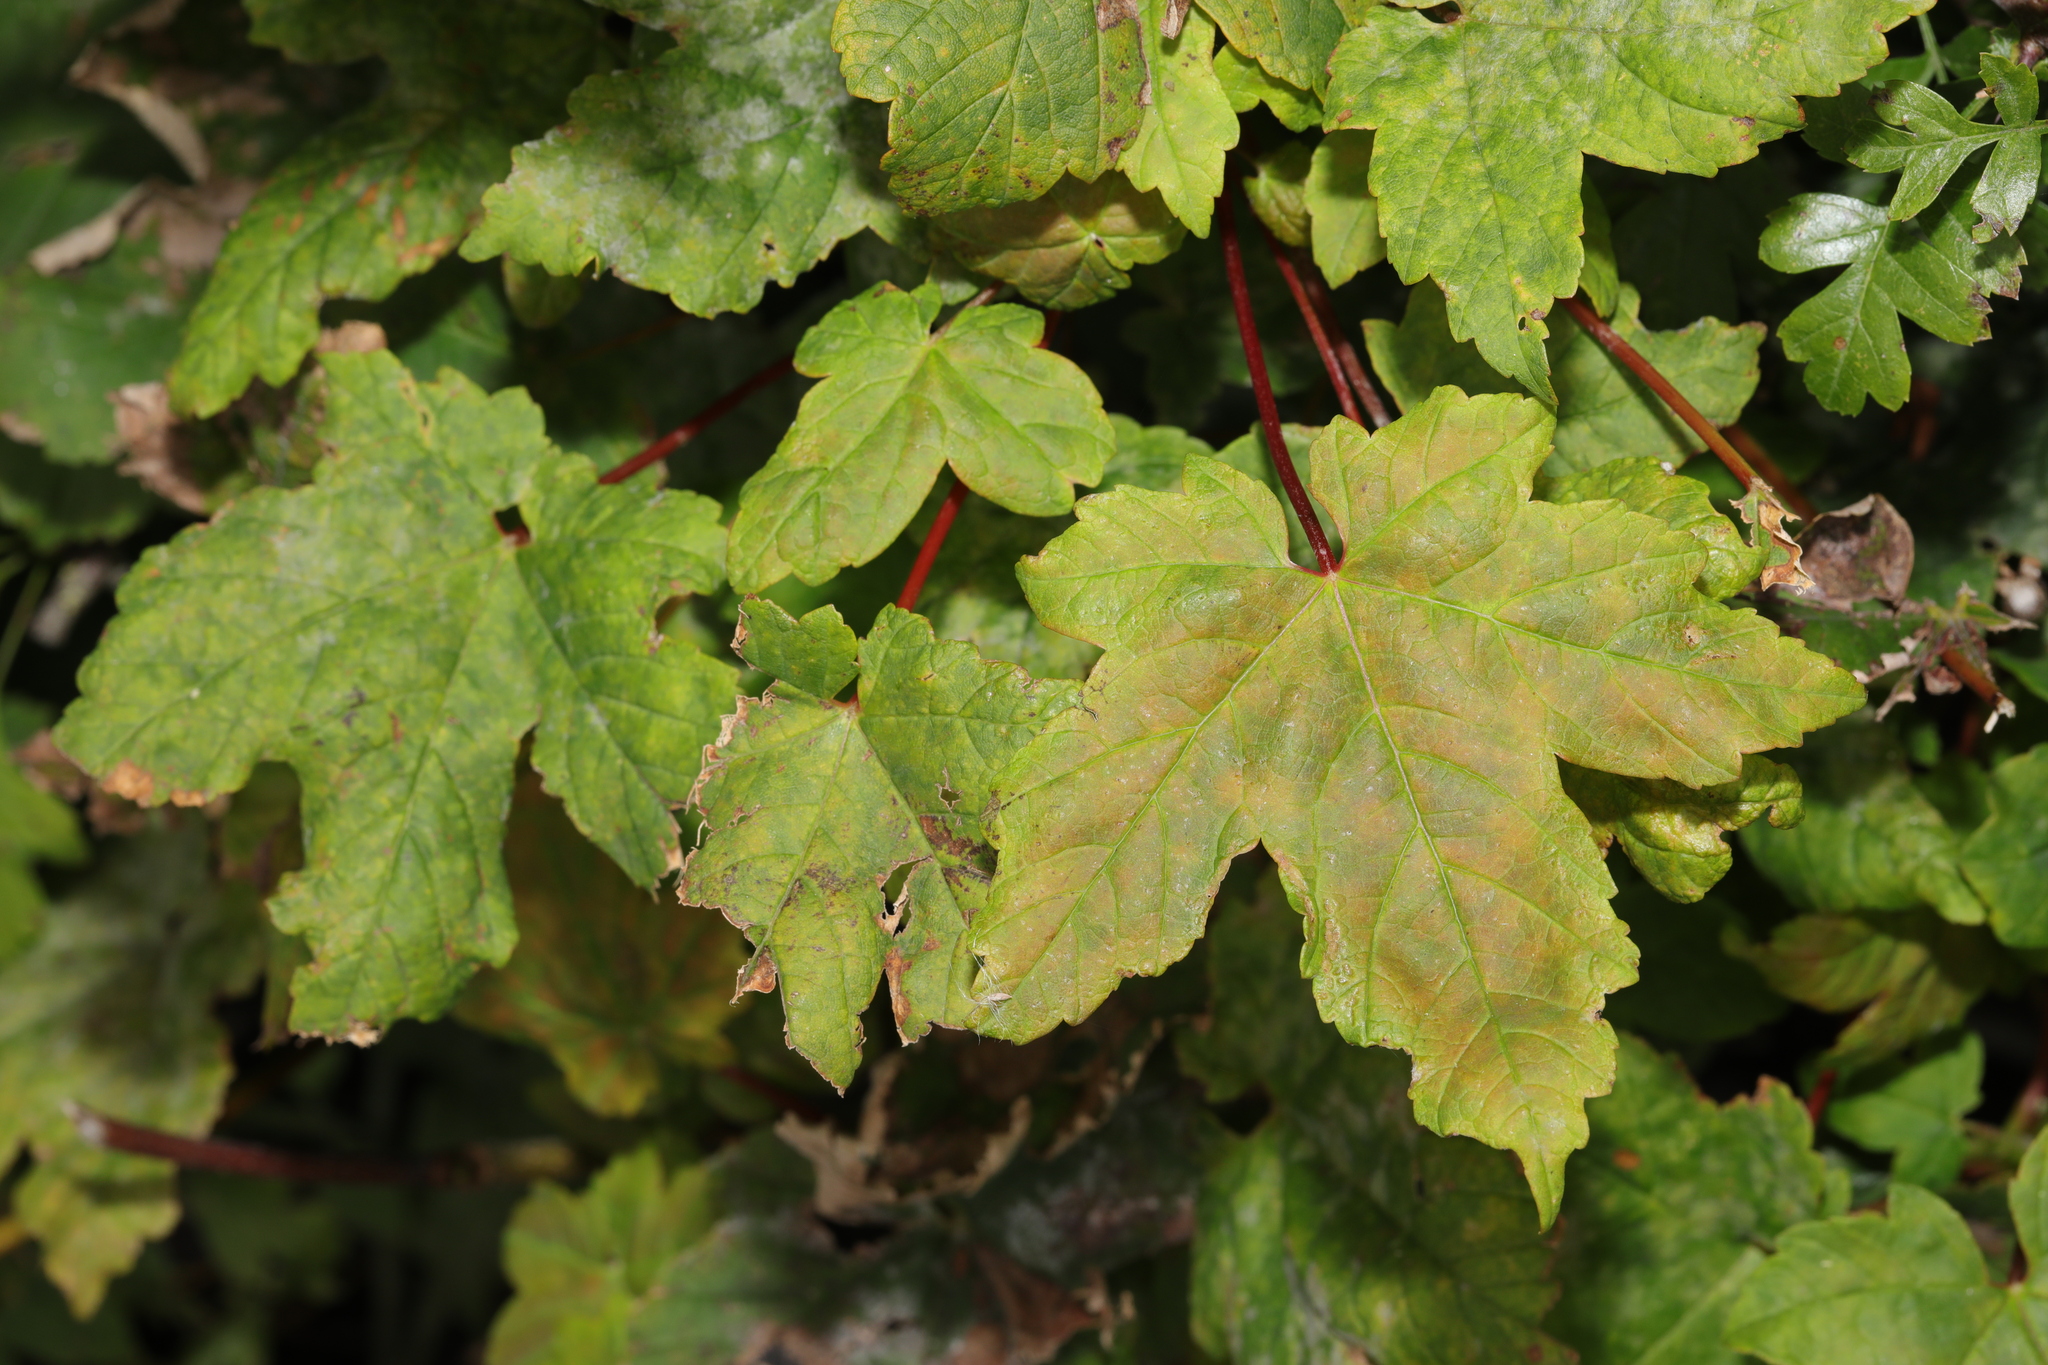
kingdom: Plantae
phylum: Tracheophyta
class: Magnoliopsida
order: Sapindales
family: Sapindaceae
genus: Acer
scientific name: Acer pseudoplatanus
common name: Sycamore
